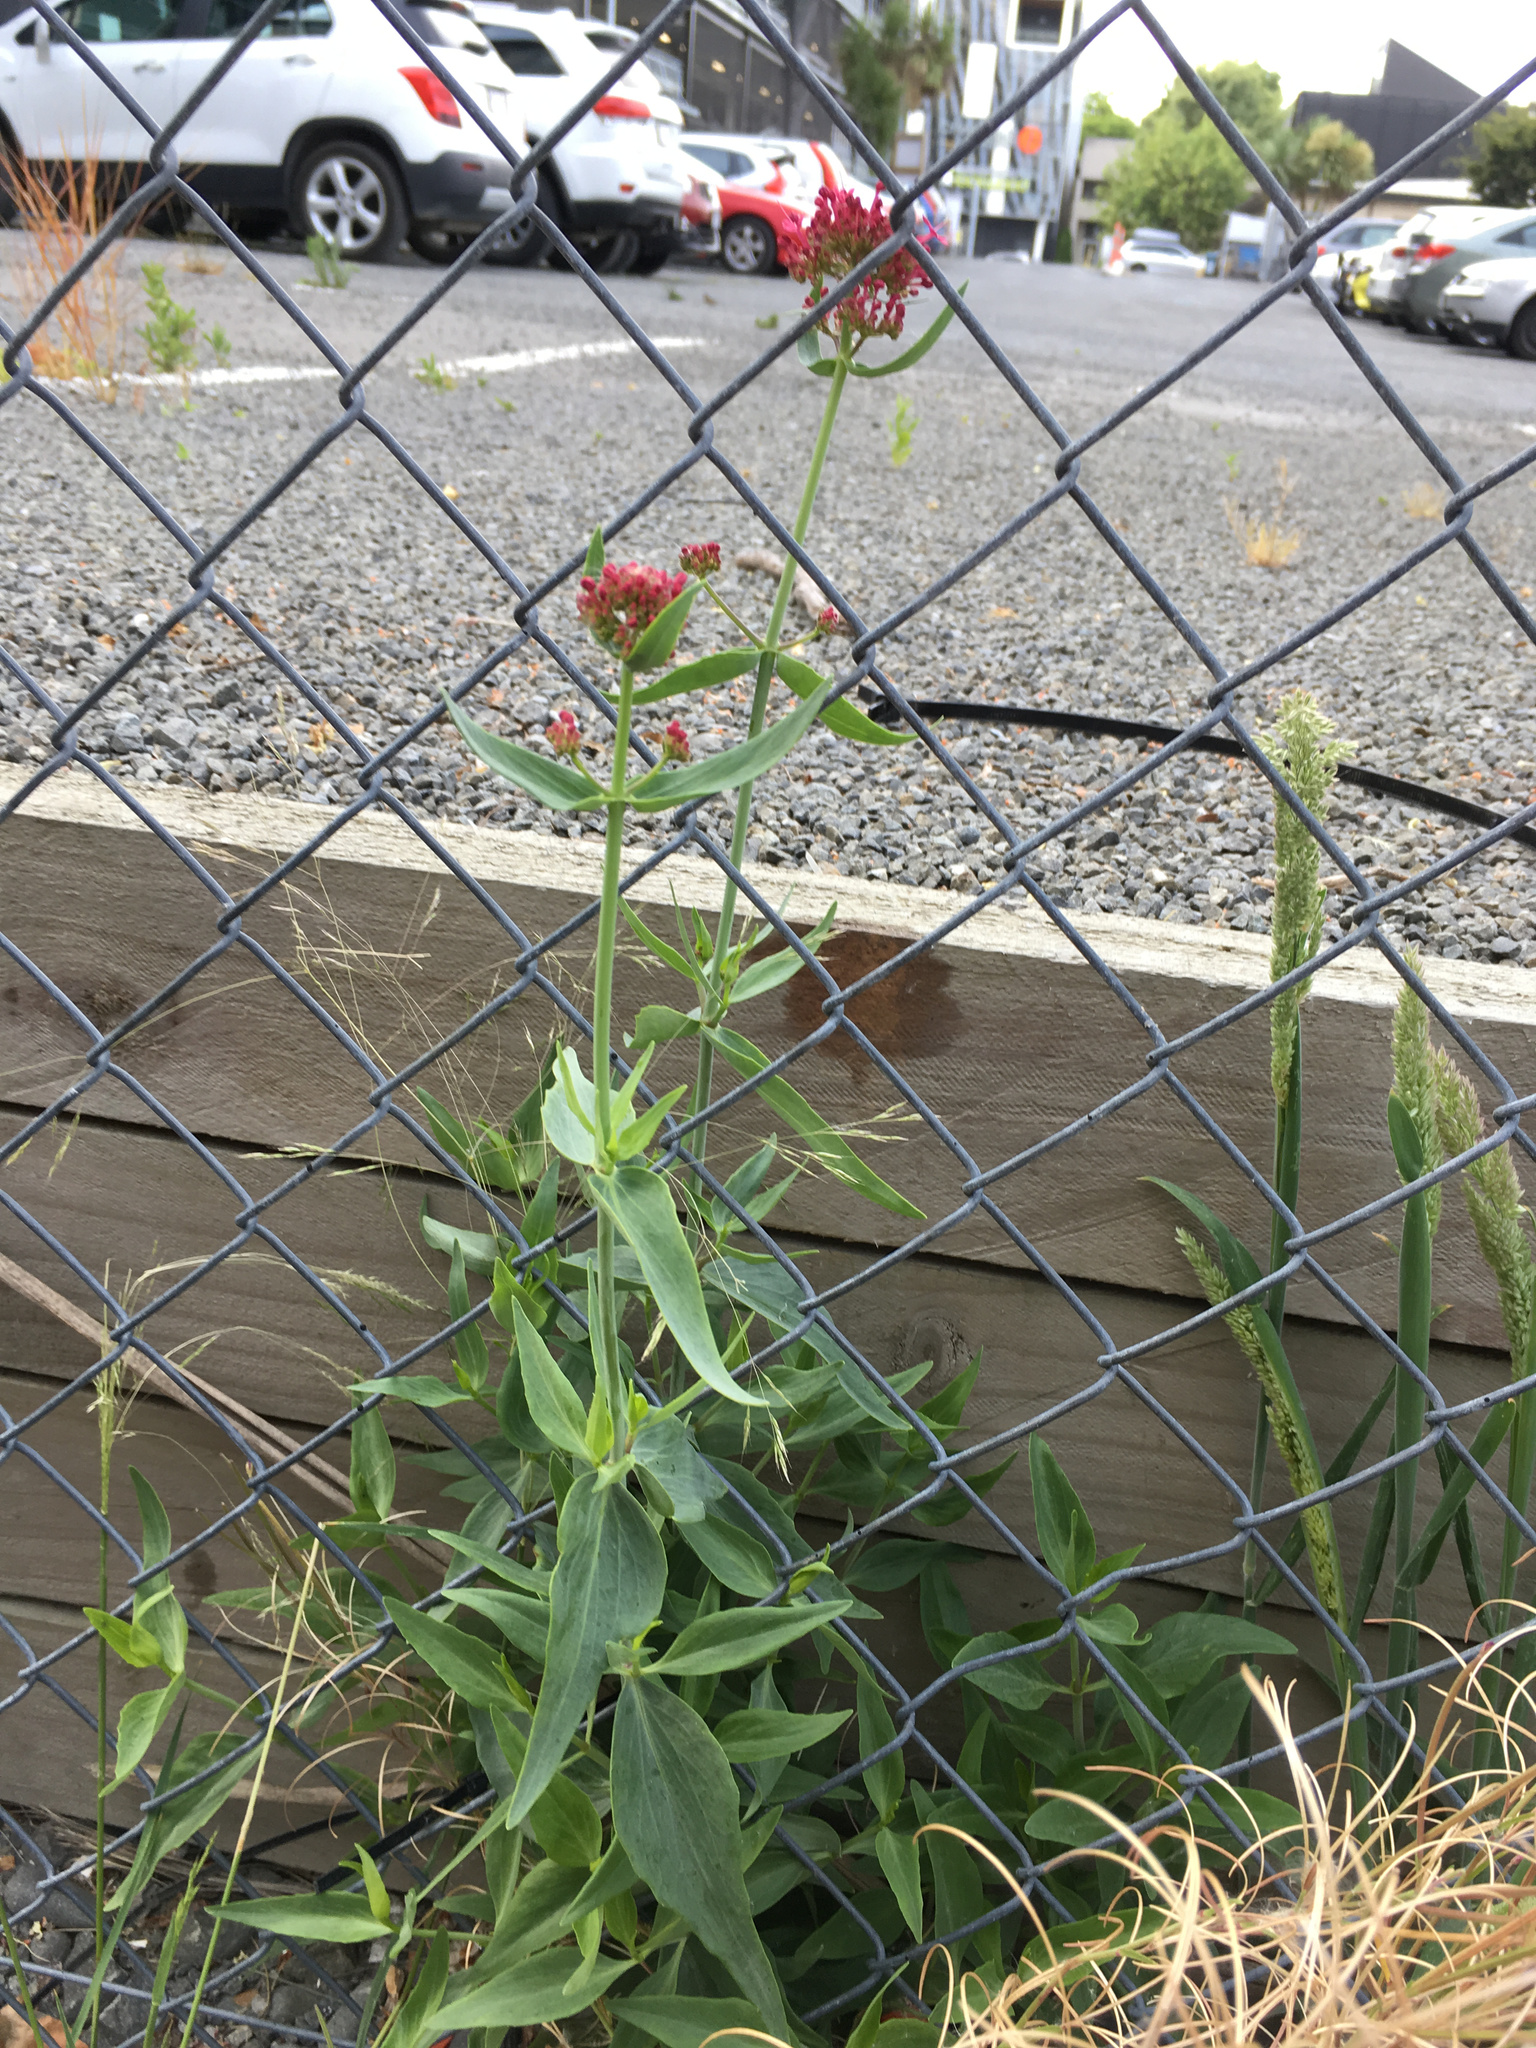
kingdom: Plantae
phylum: Tracheophyta
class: Magnoliopsida
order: Dipsacales
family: Caprifoliaceae
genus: Centranthus
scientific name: Centranthus ruber
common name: Red valerian
